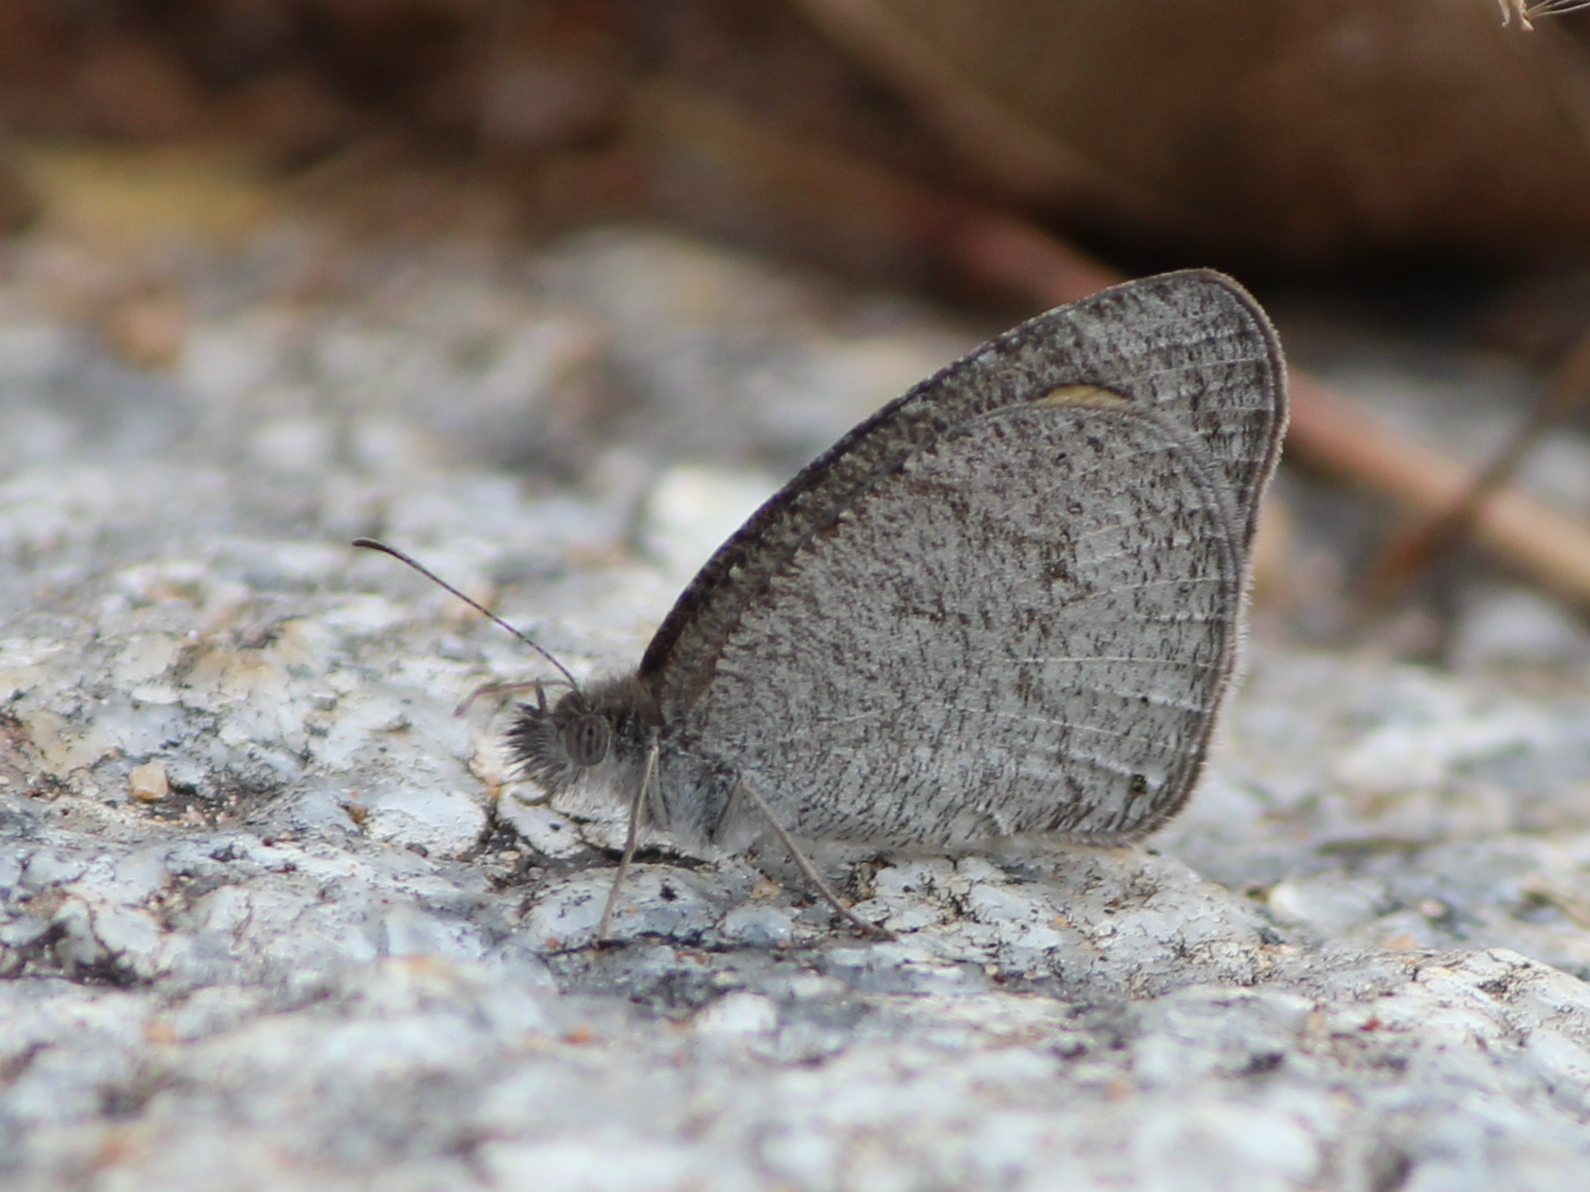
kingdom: Animalia
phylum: Arthropoda
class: Insecta
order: Lepidoptera
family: Nymphalidae
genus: Ypthima
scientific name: Ypthima asterope
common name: African ringlet
